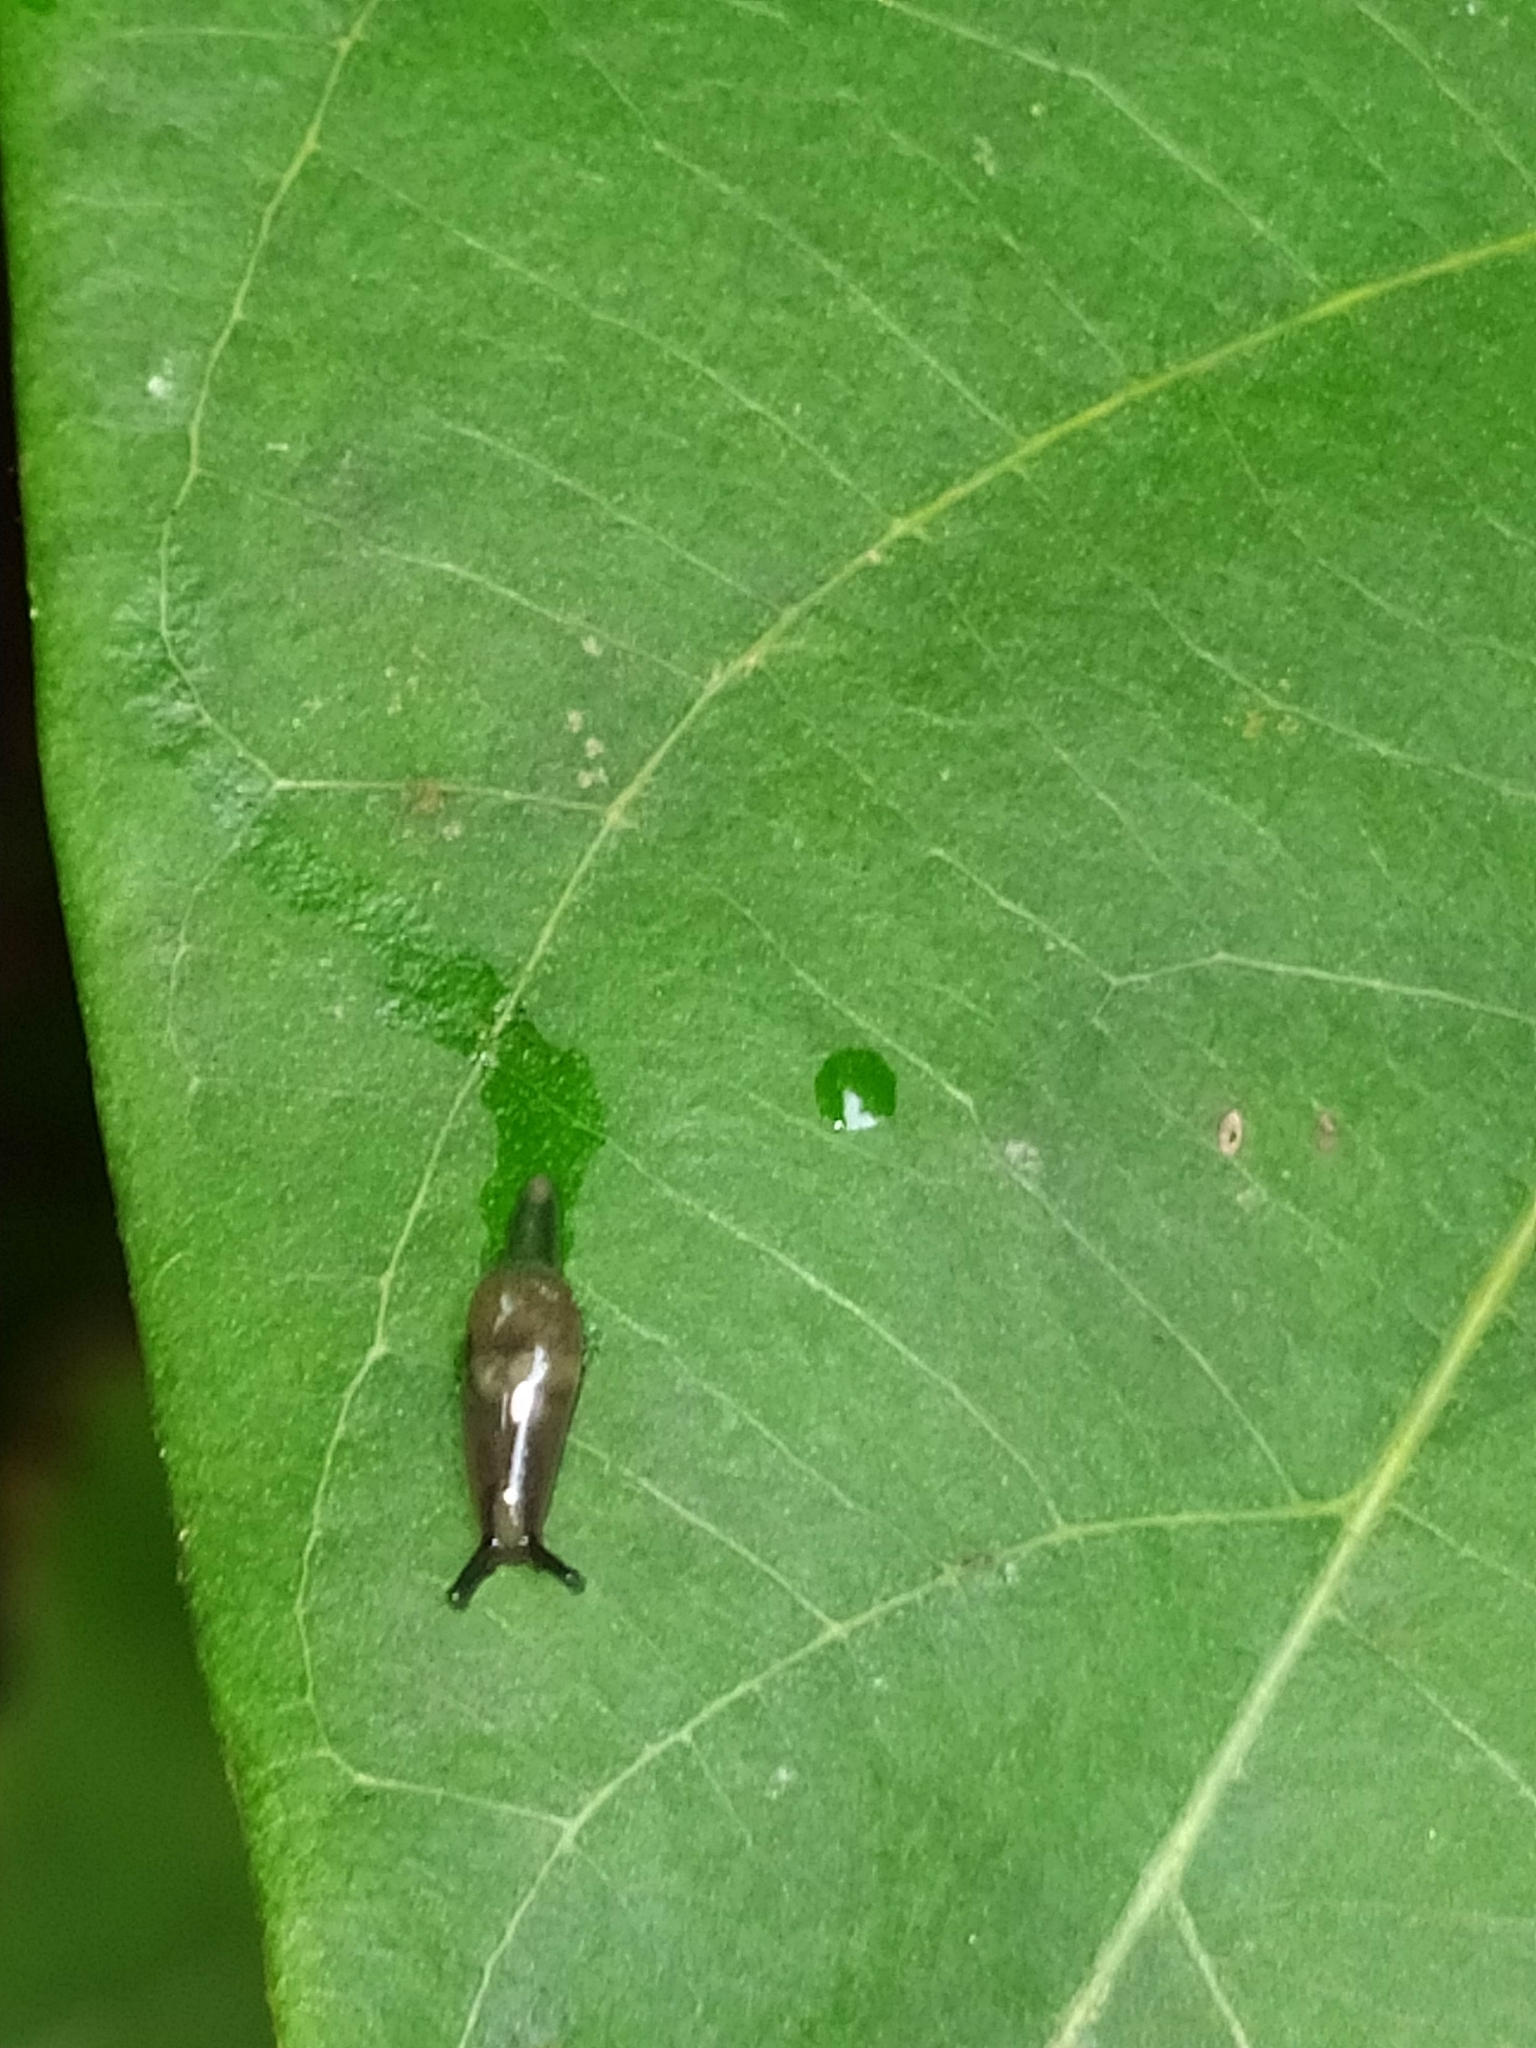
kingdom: Animalia
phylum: Mollusca
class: Gastropoda
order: Stylommatophora
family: Ariophantidae
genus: Parmarion
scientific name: Parmarion martensi
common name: Semi-slug
